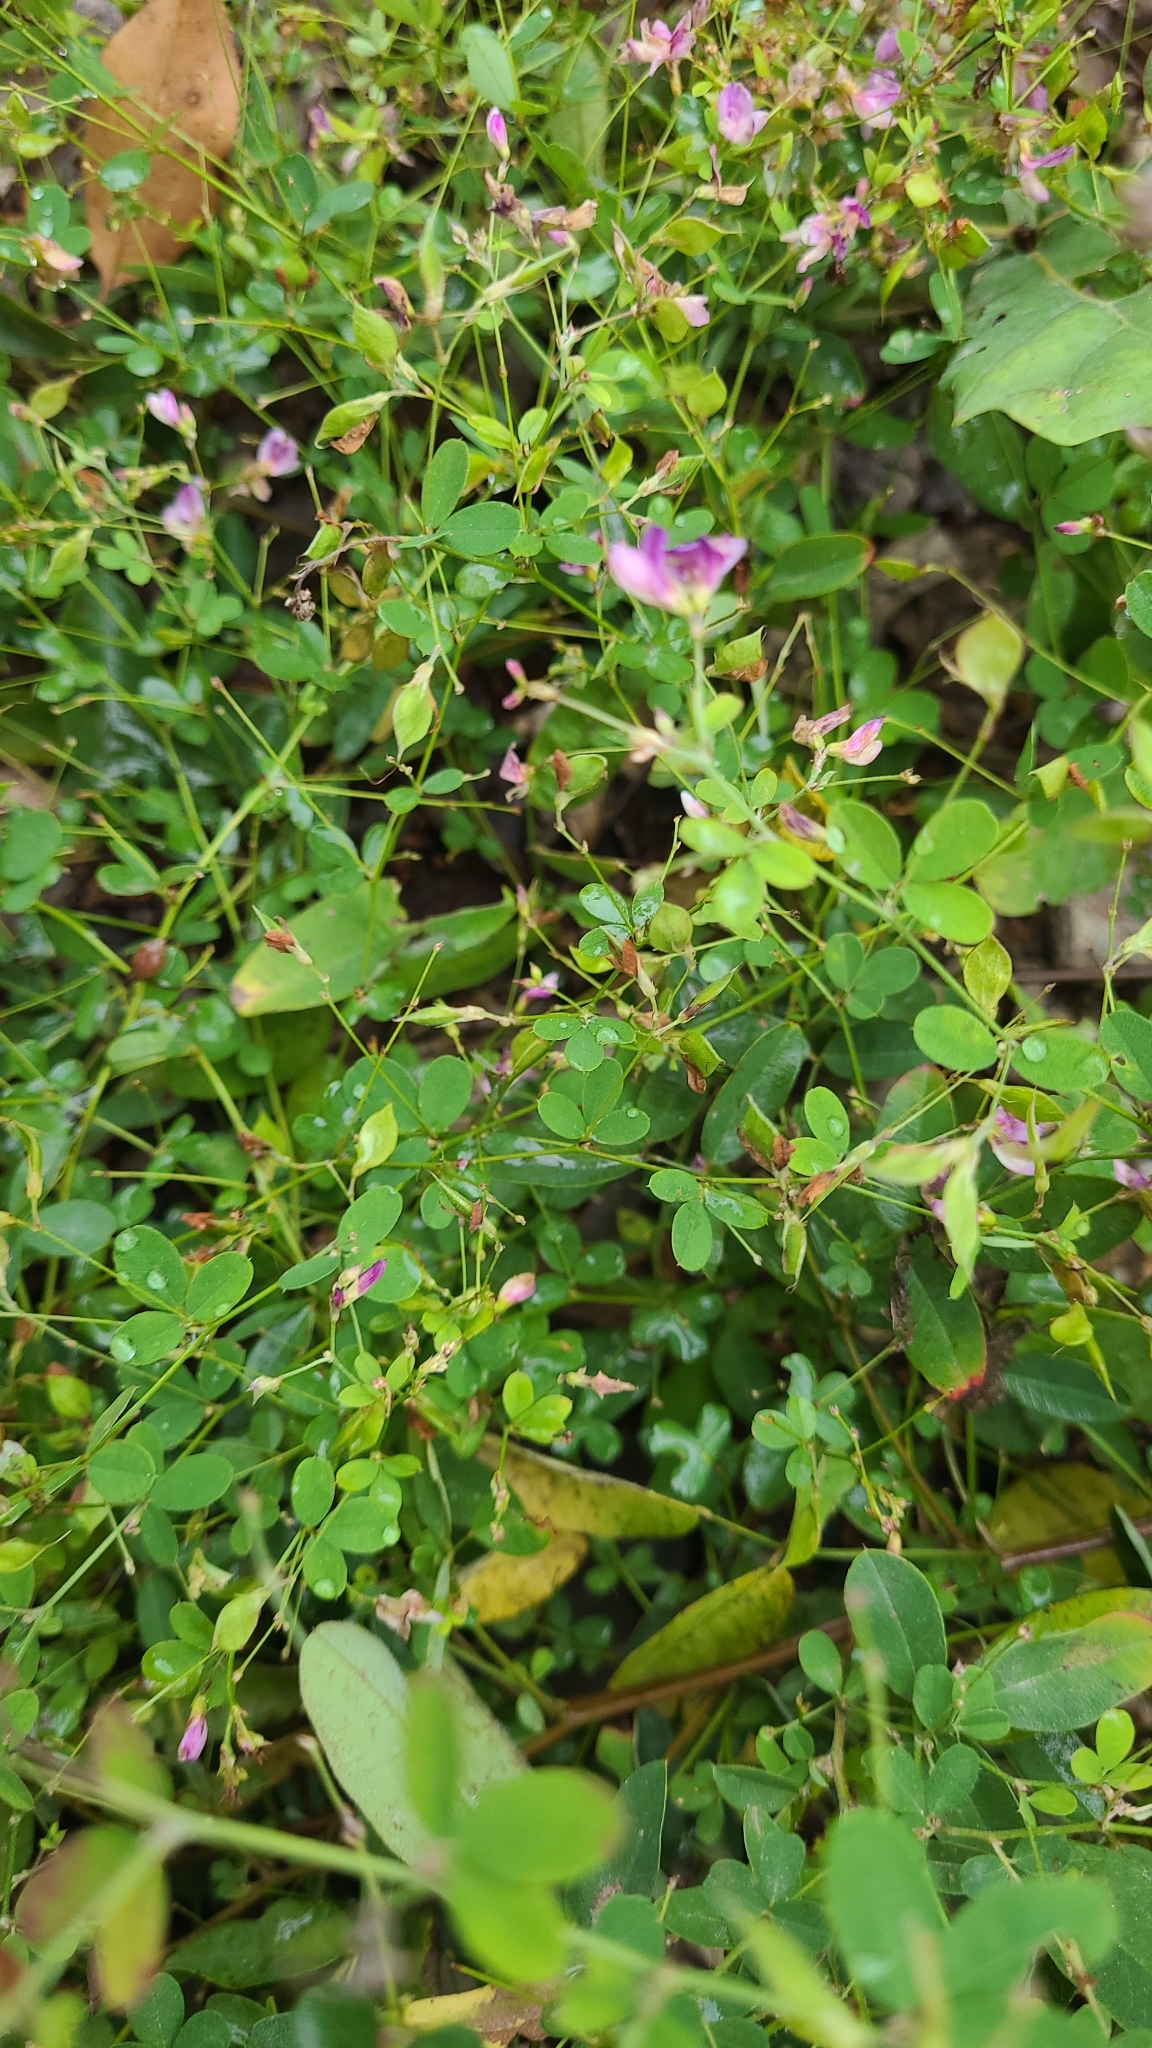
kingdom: Plantae
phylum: Tracheophyta
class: Magnoliopsida
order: Fabales
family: Fabaceae
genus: Lespedeza
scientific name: Lespedeza bicolor
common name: Shrub lespedeza
